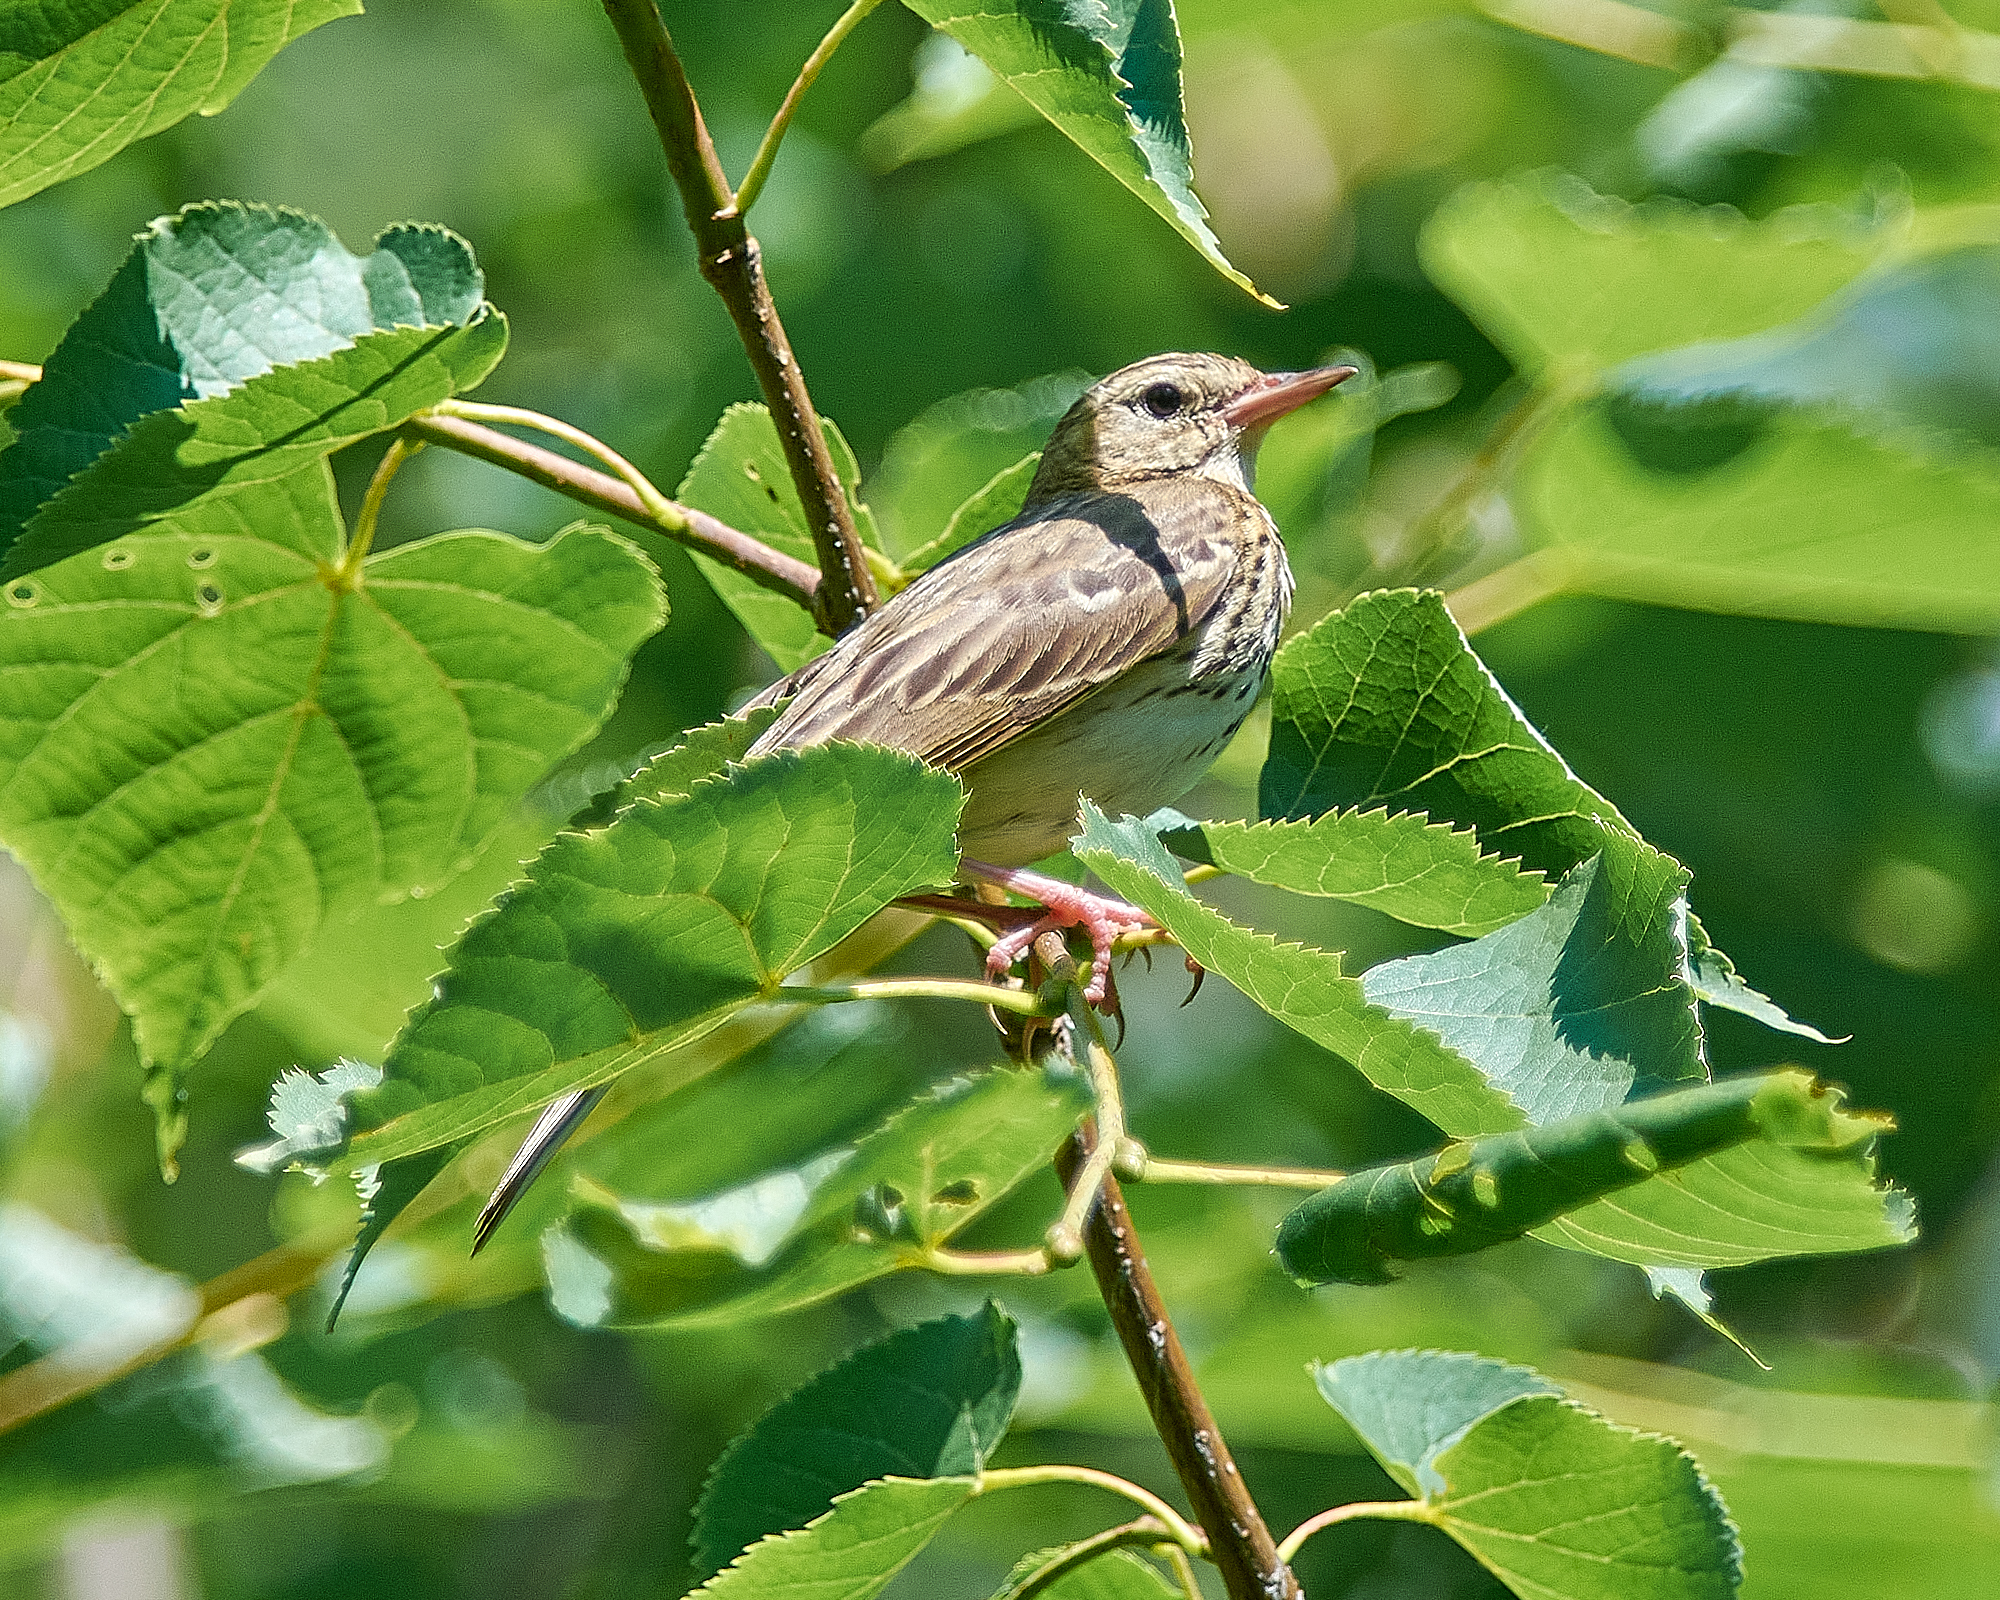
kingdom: Animalia
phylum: Chordata
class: Aves
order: Passeriformes
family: Motacillidae
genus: Anthus
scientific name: Anthus trivialis
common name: Tree pipit
